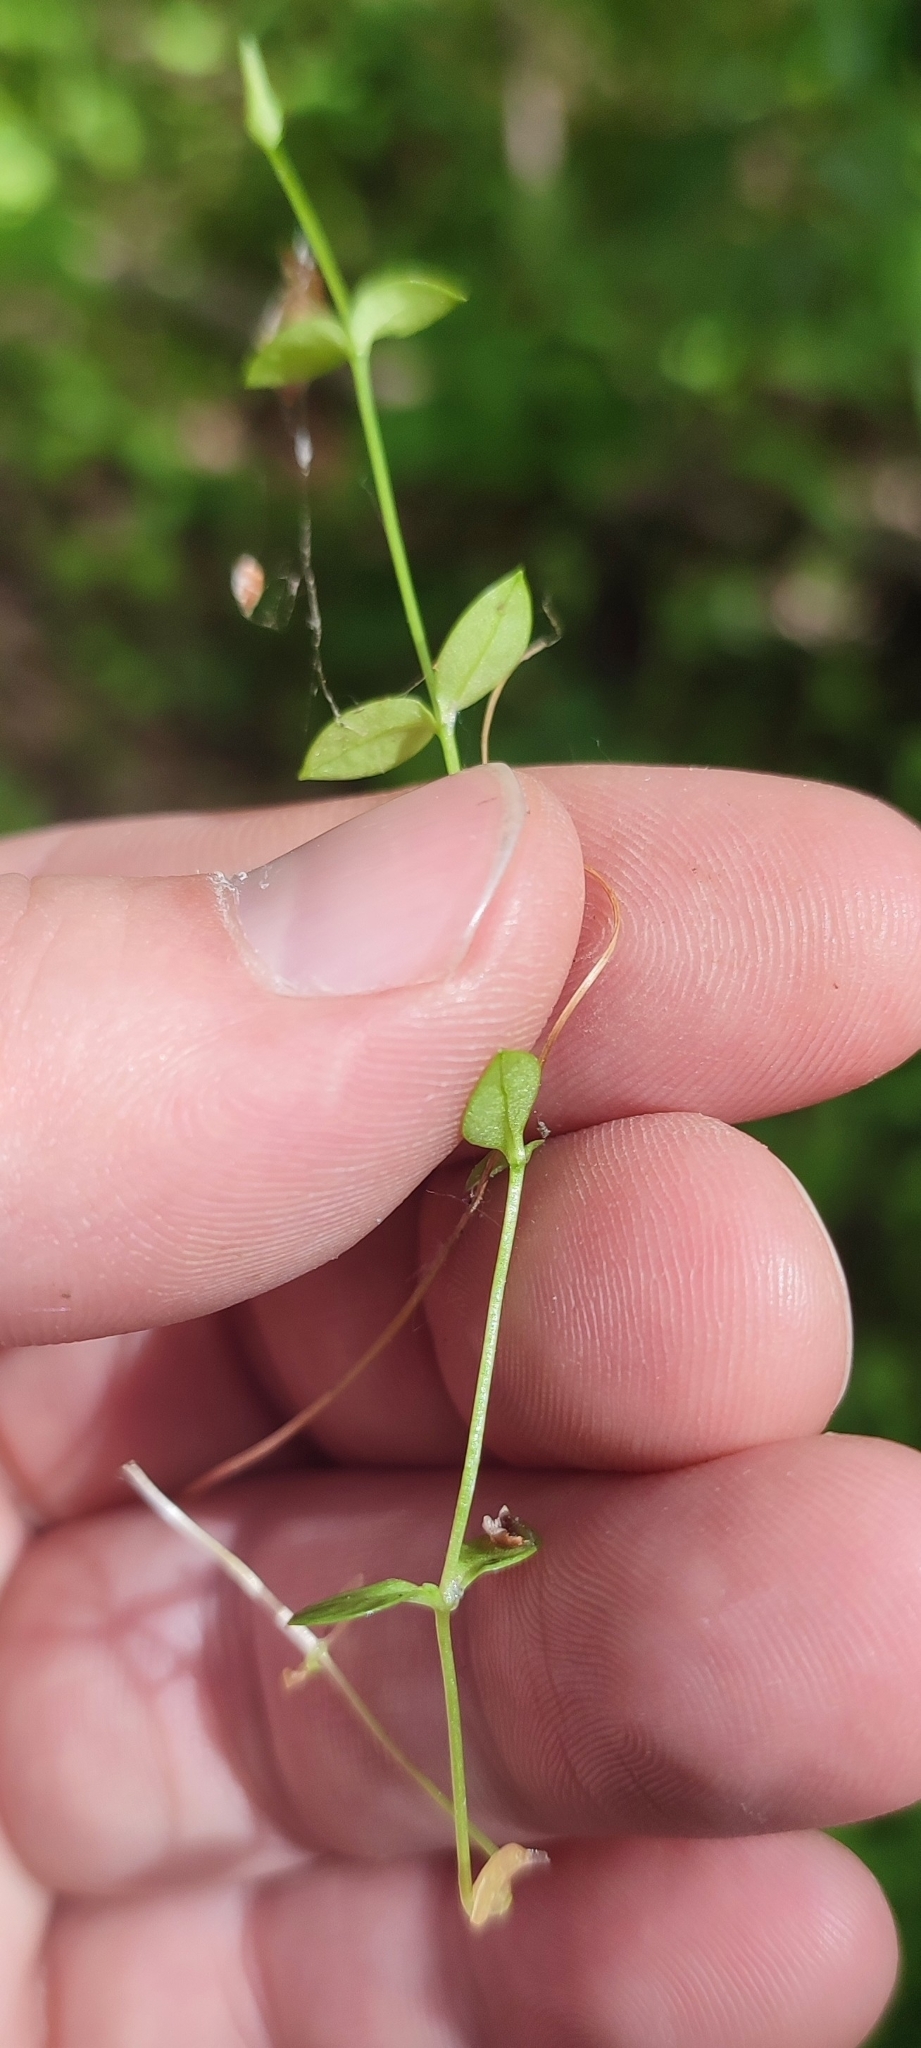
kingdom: Plantae
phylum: Tracheophyta
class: Magnoliopsida
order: Caryophyllales
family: Caryophyllaceae
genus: Moehringia
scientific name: Moehringia lateriflora
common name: Blunt-leaved sandwort
